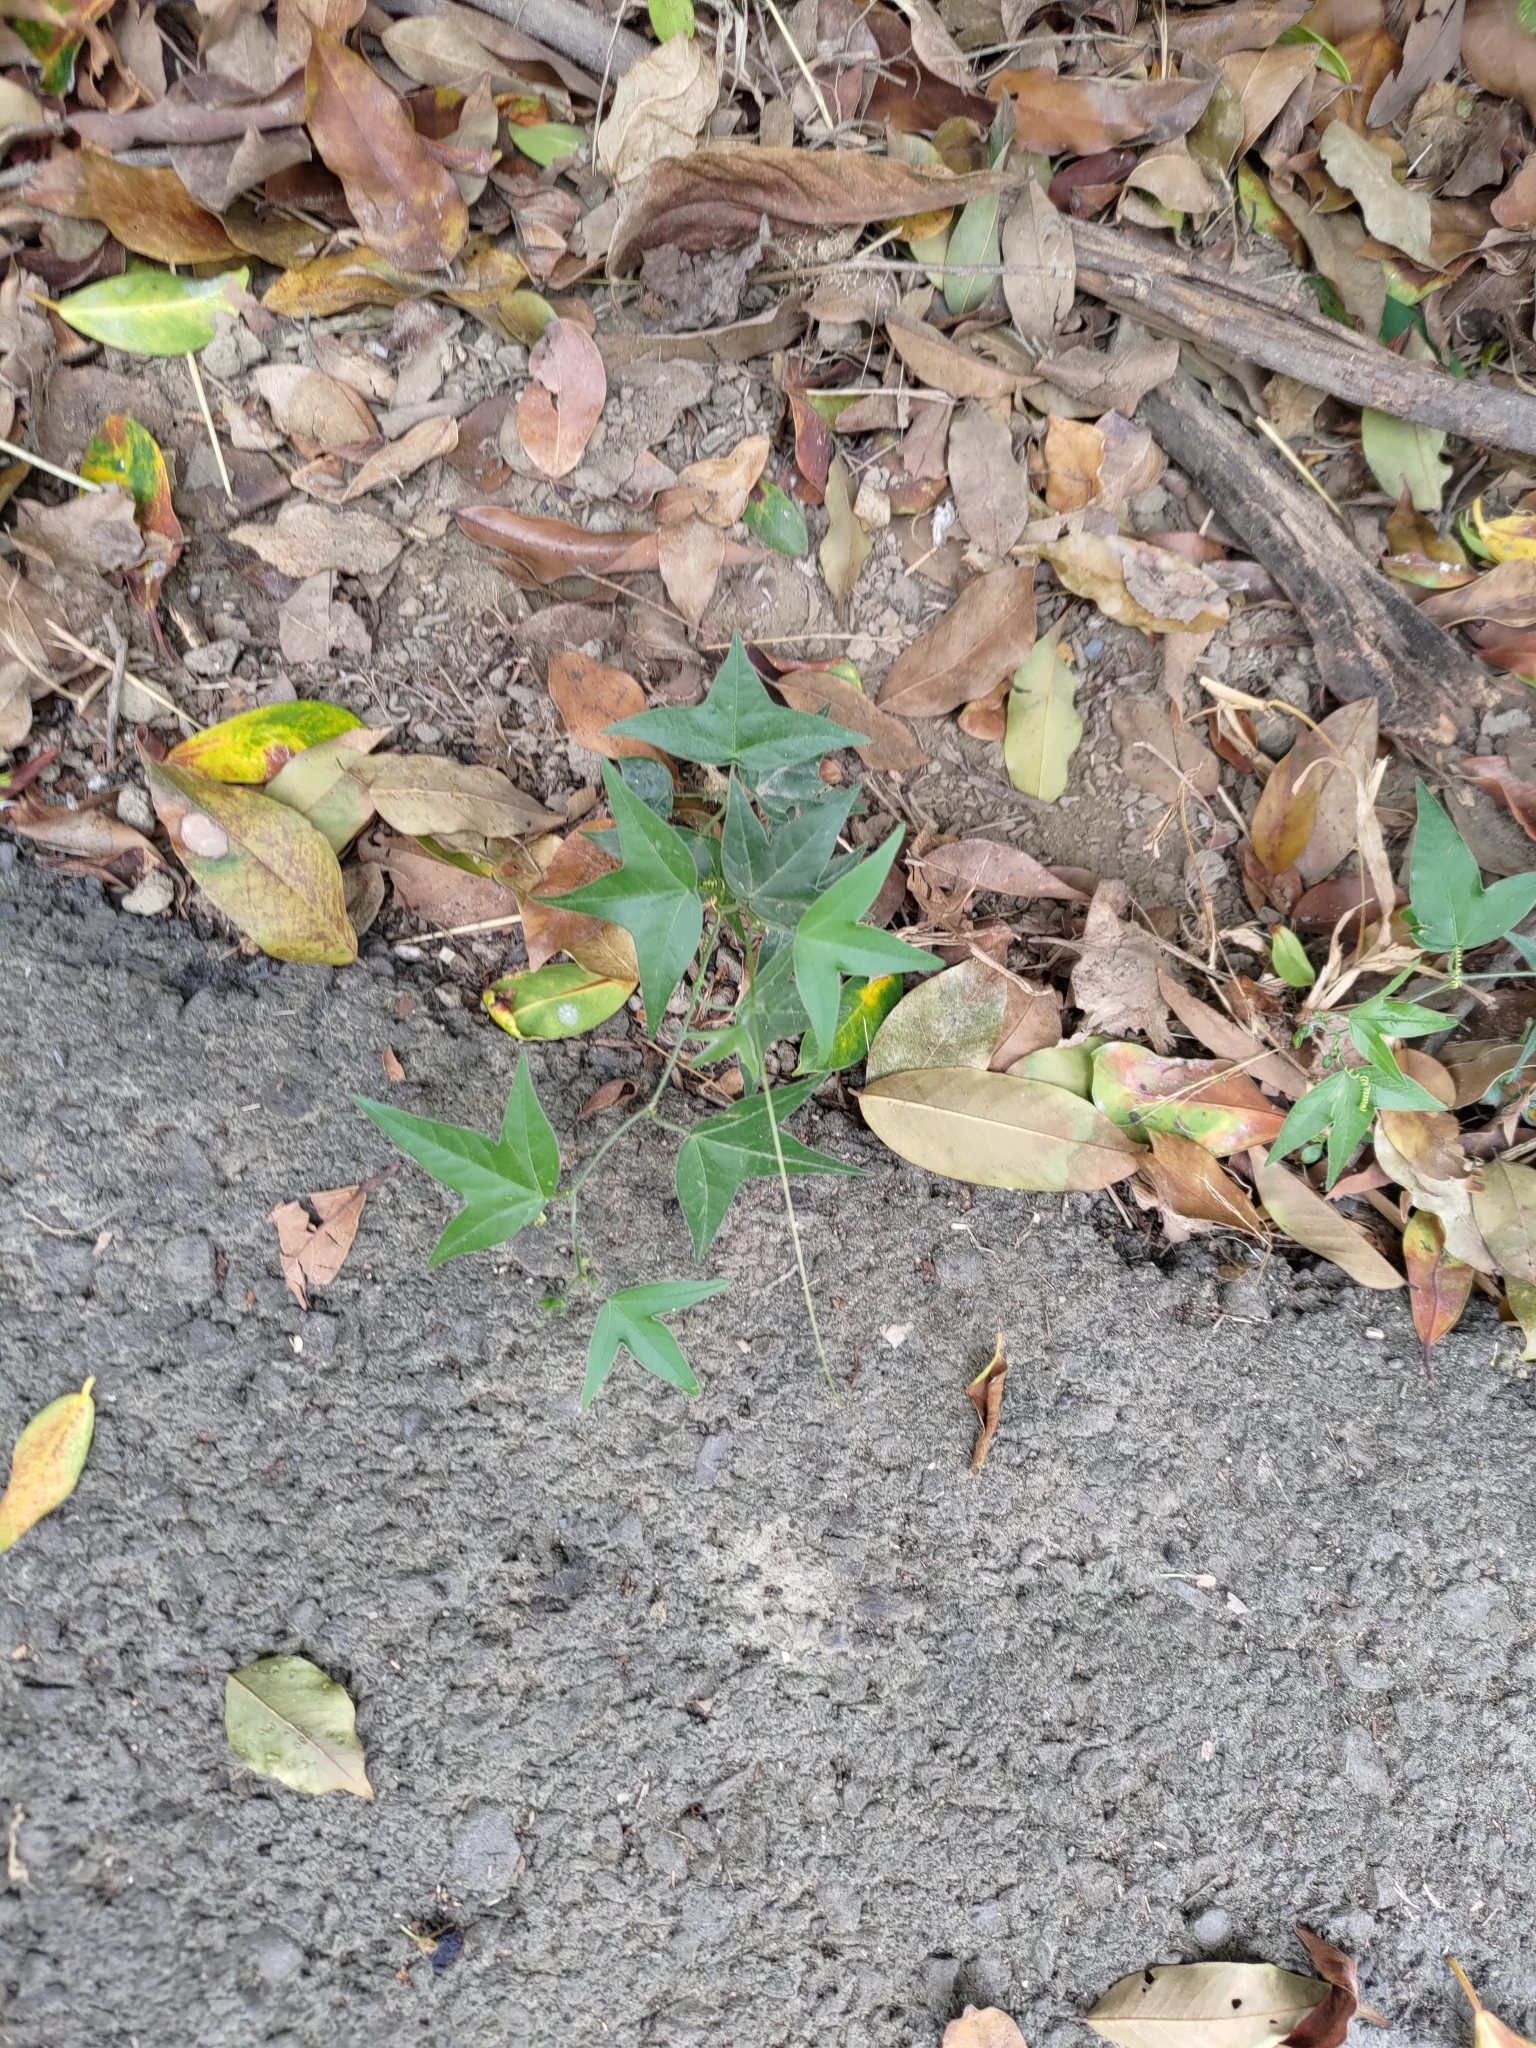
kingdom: Plantae
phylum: Tracheophyta
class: Magnoliopsida
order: Malpighiales
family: Passifloraceae
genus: Passiflora
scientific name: Passiflora suberosa
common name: Wild passionfruit
